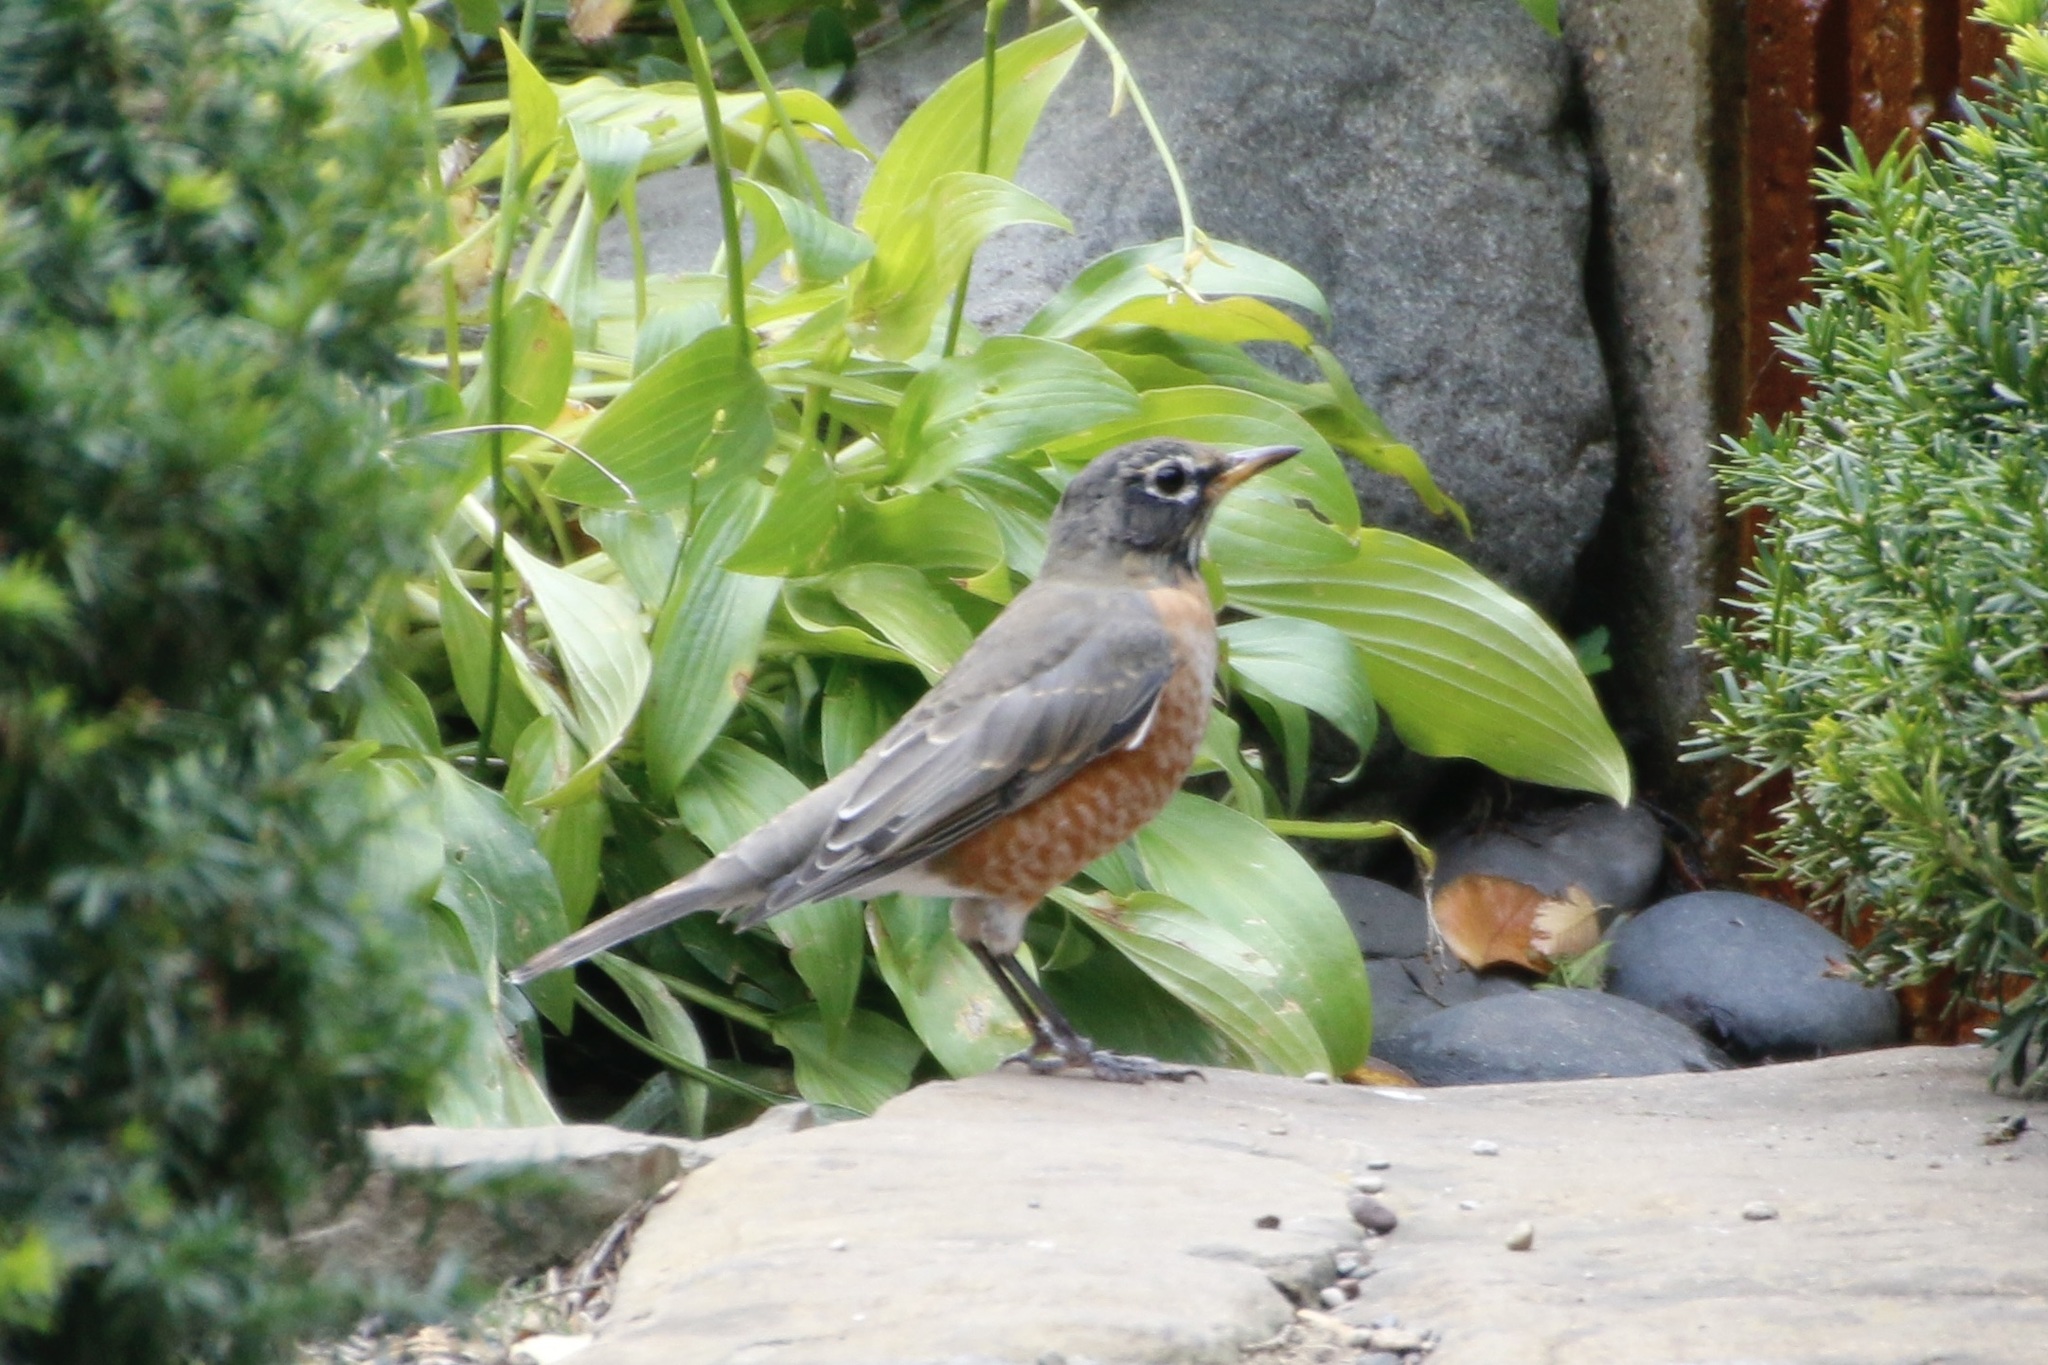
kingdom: Animalia
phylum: Chordata
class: Aves
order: Passeriformes
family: Turdidae
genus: Turdus
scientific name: Turdus migratorius
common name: American robin
